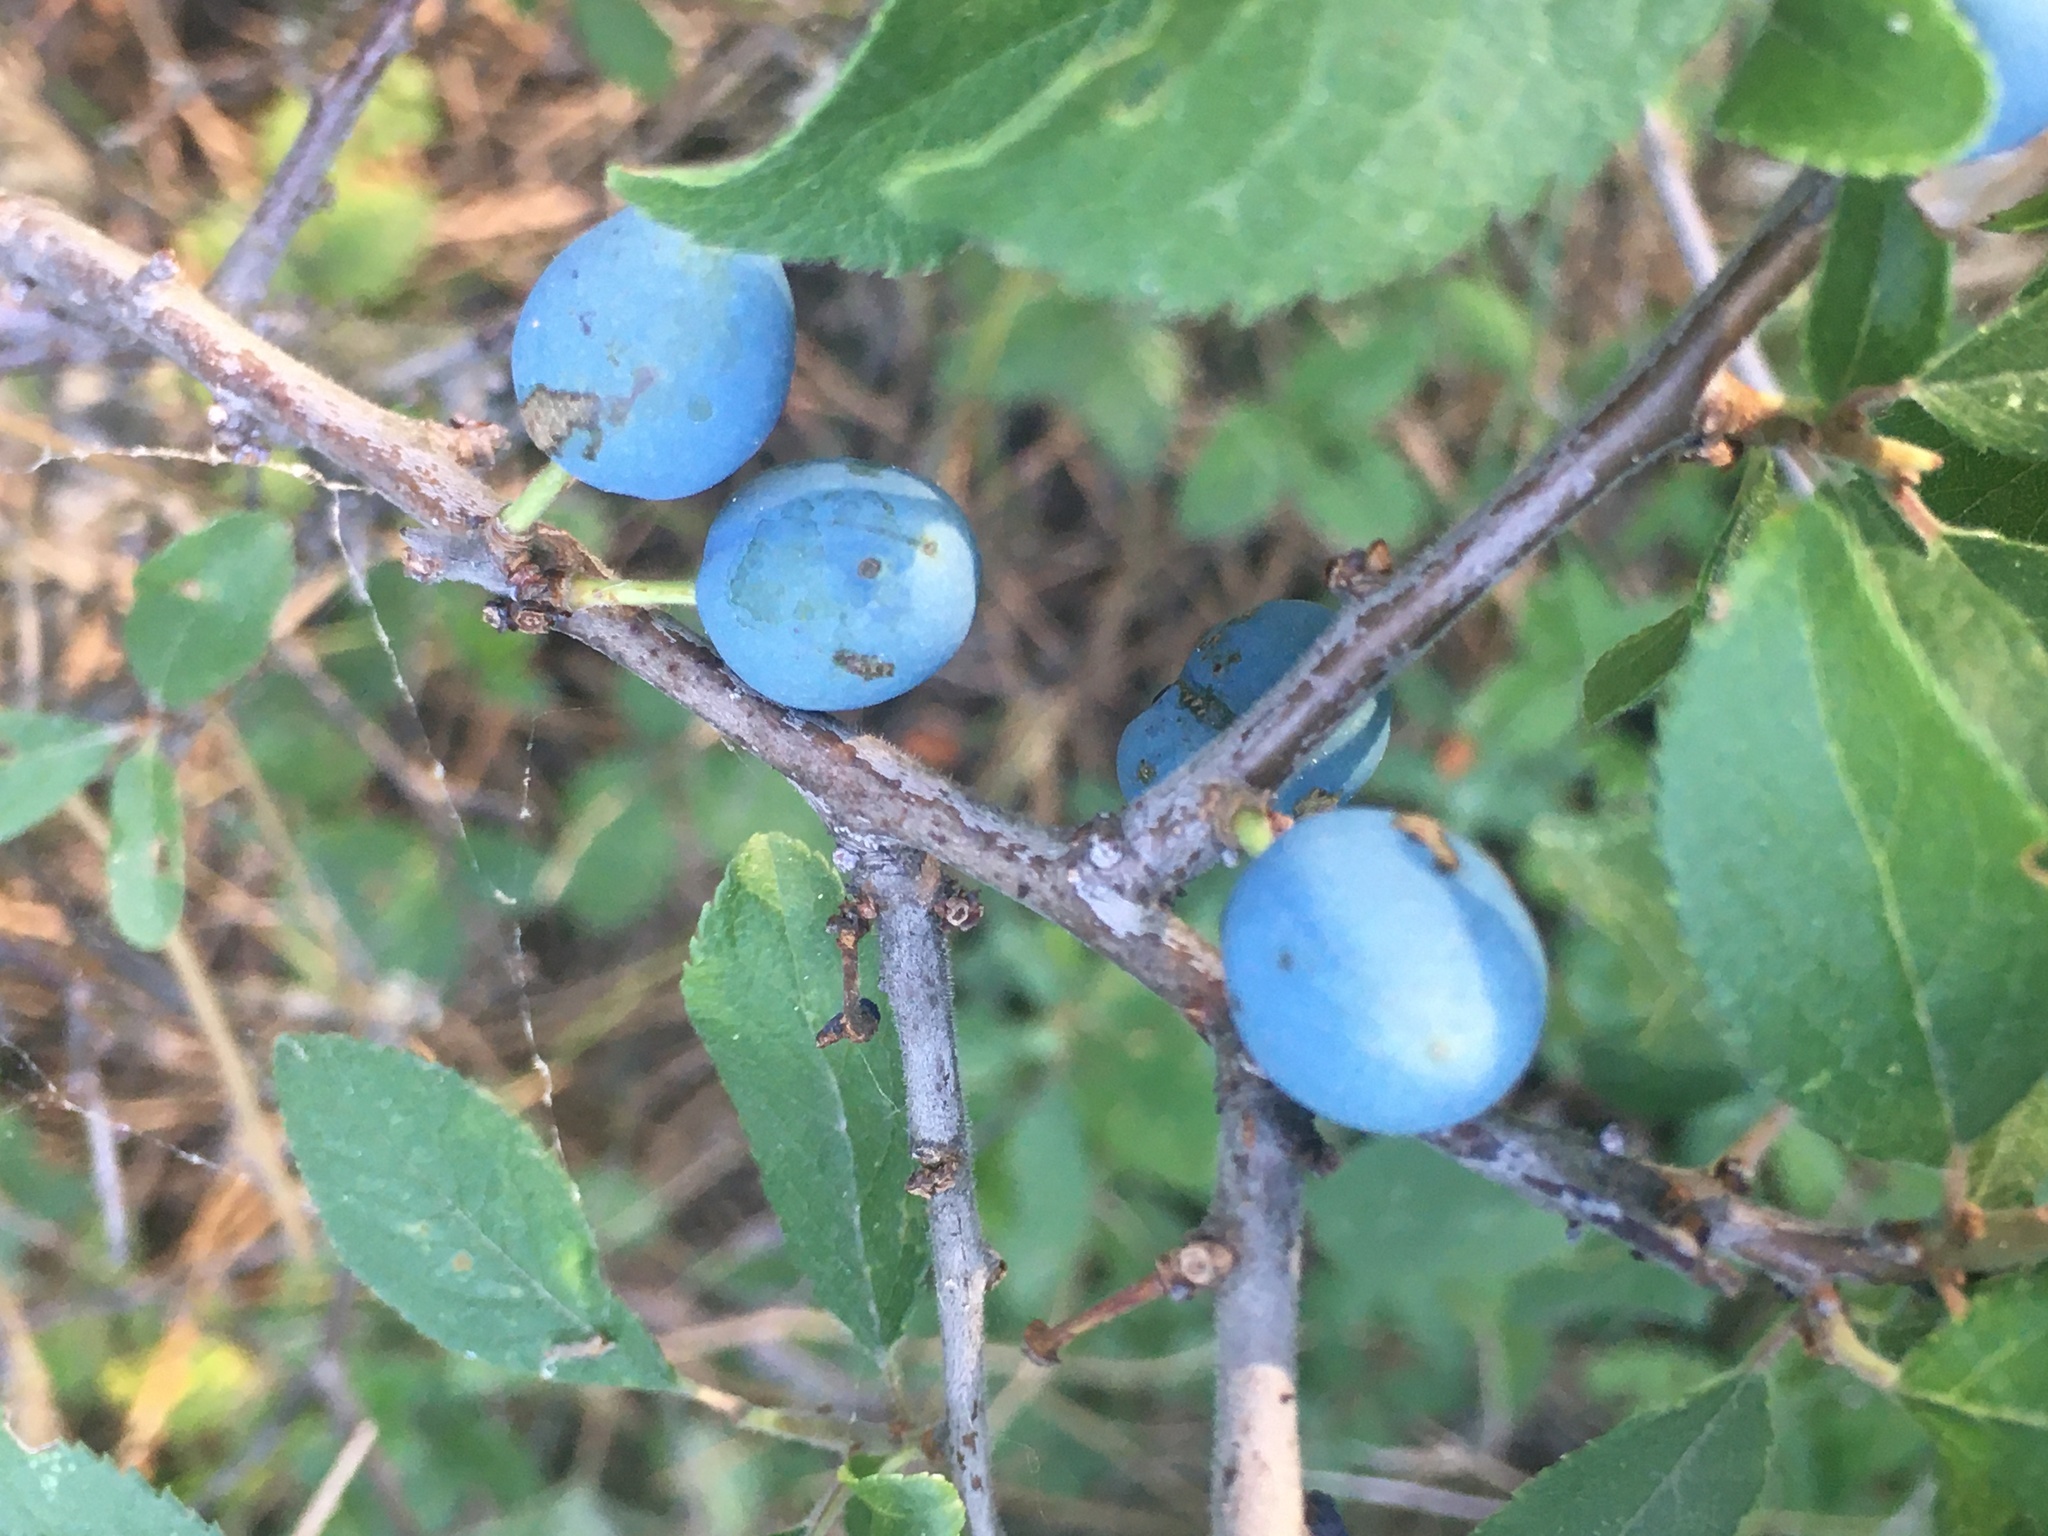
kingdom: Plantae
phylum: Tracheophyta
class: Magnoliopsida
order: Rosales
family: Rosaceae
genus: Prunus
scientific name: Prunus spinosa
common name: Blackthorn
